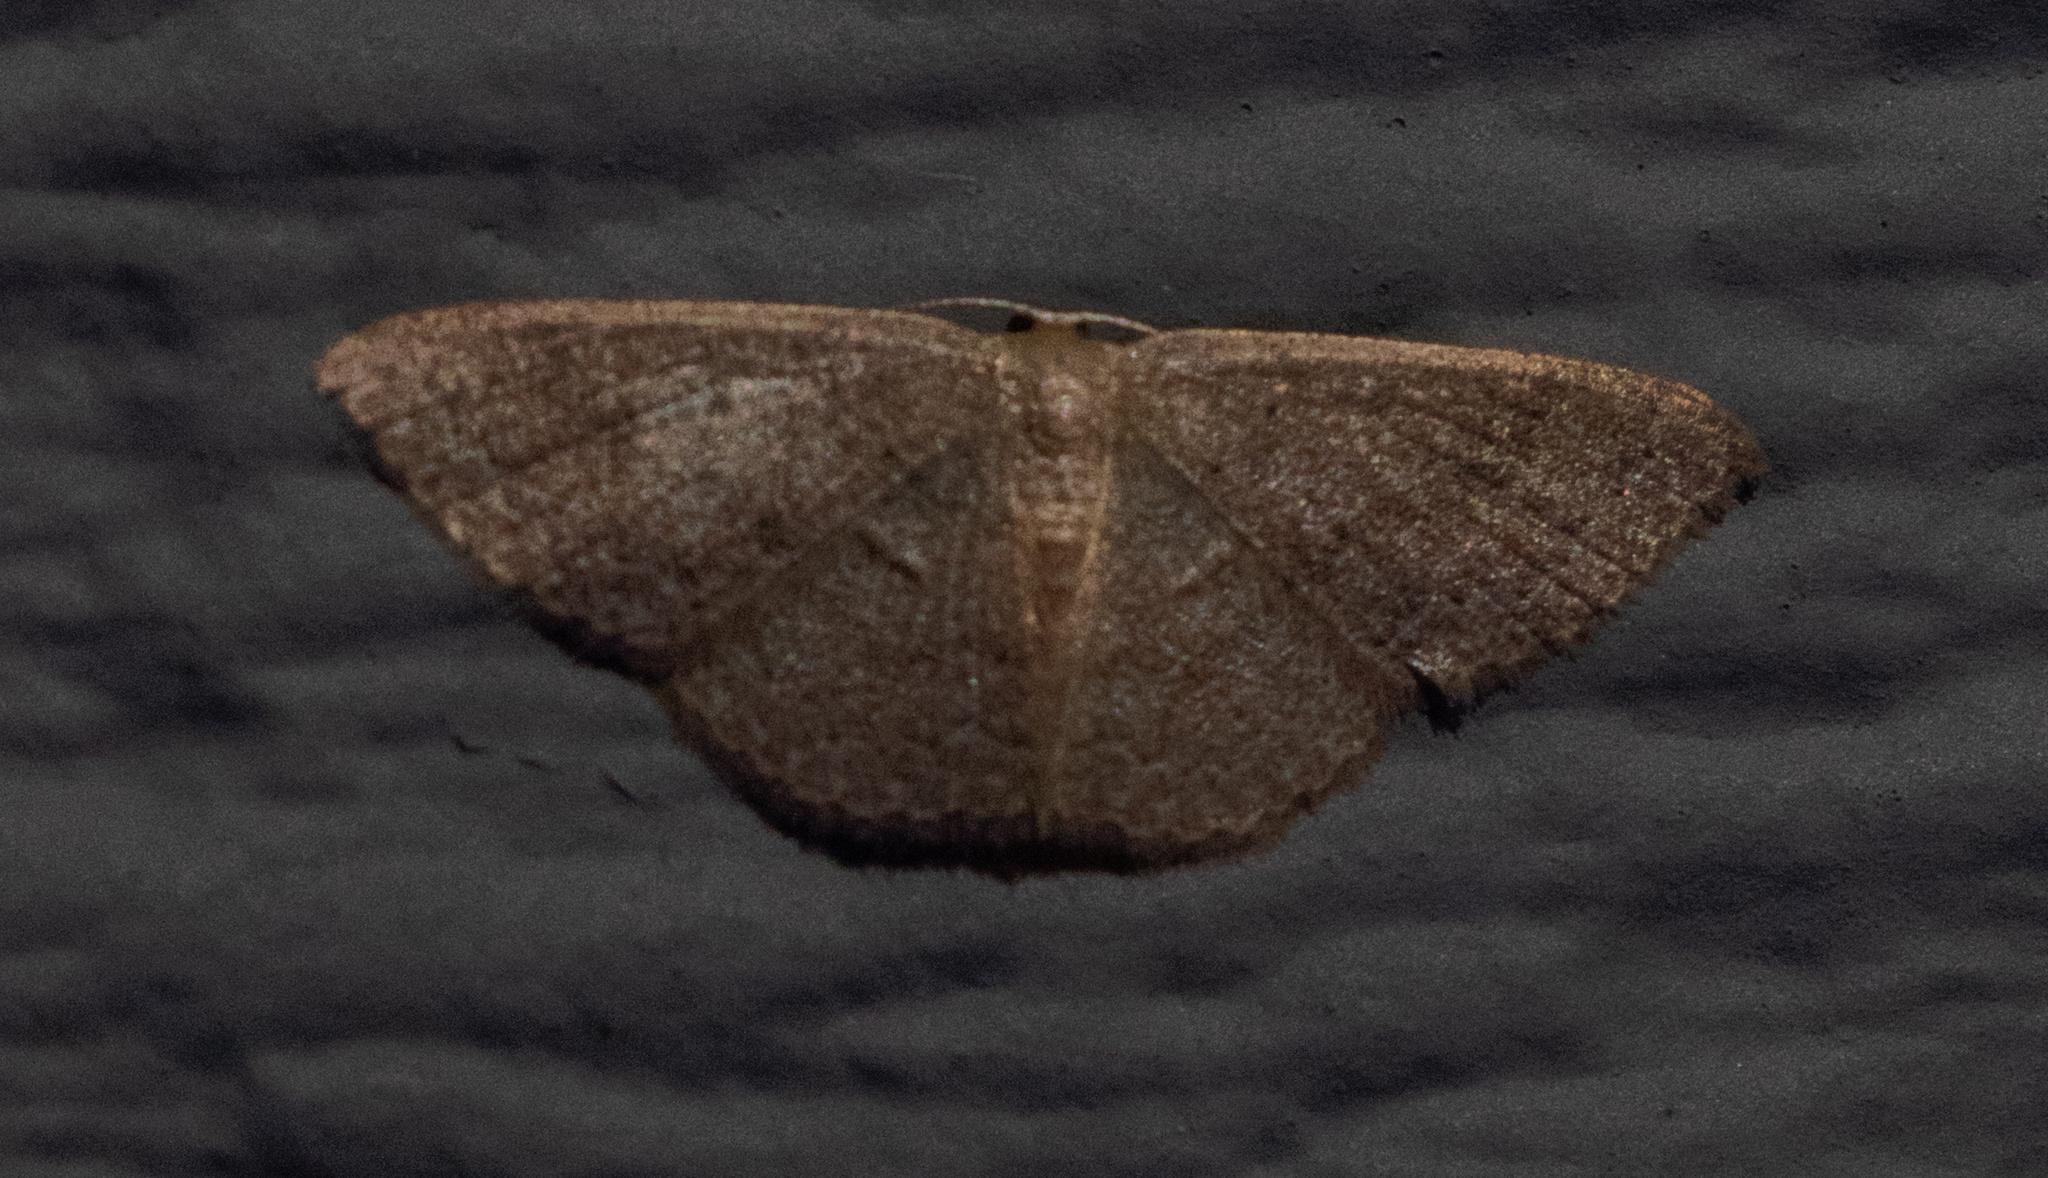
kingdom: Animalia
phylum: Arthropoda
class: Insecta
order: Lepidoptera
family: Geometridae
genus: Pleuroprucha
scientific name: Pleuroprucha insulsaria
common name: Common tan wave
